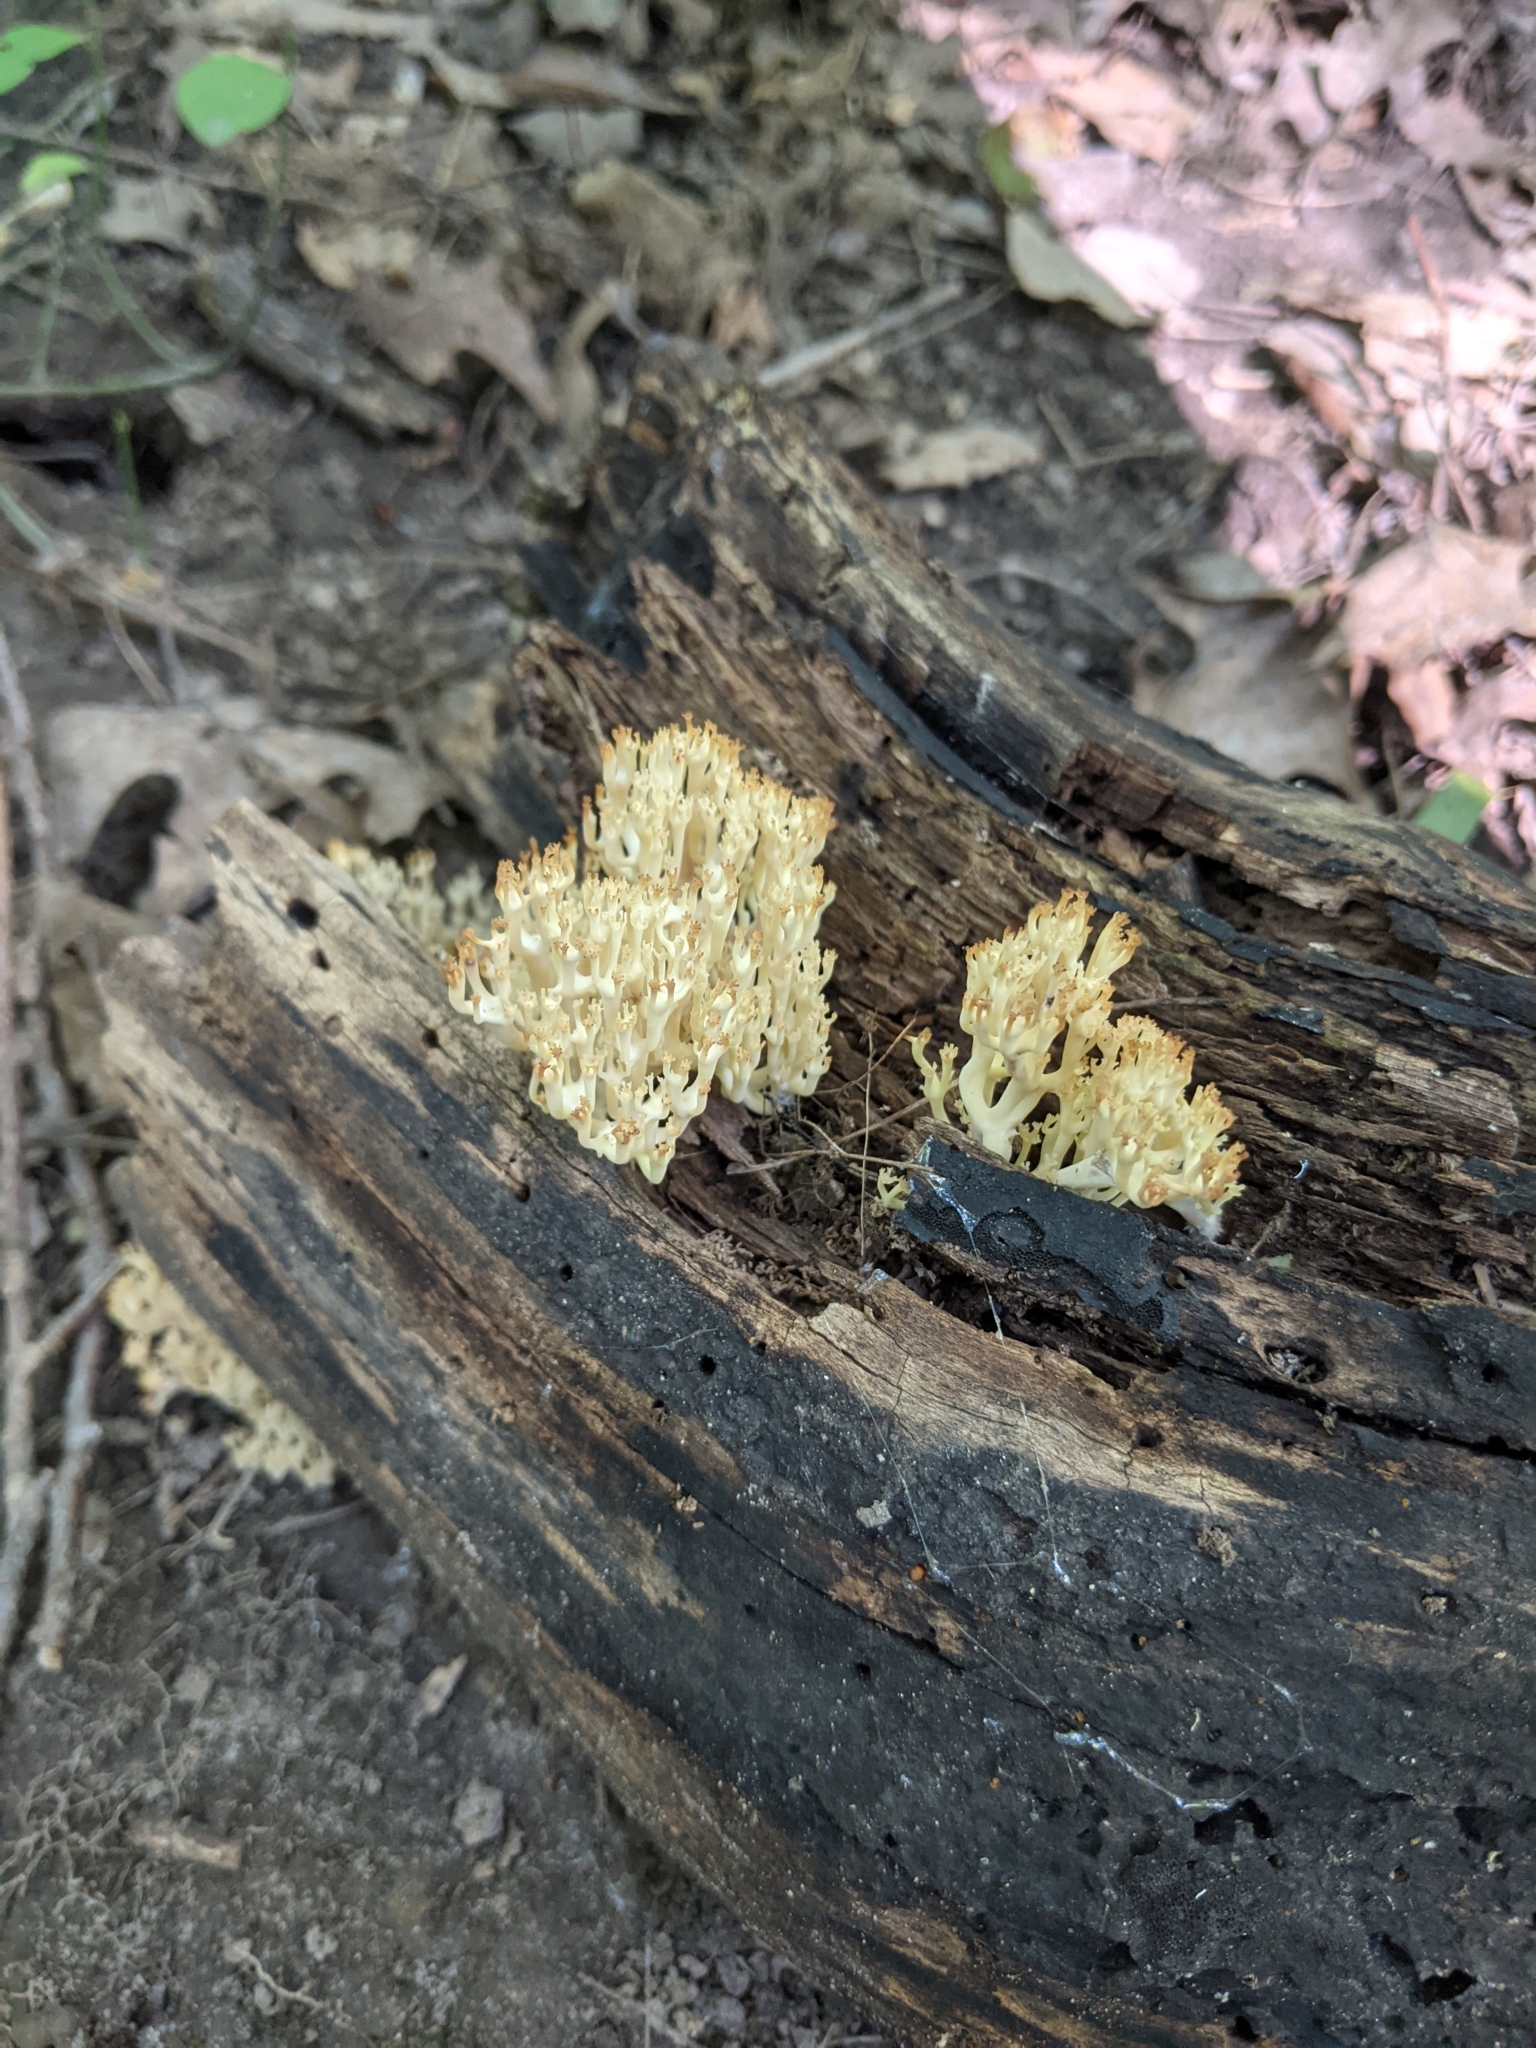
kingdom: Fungi
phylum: Basidiomycota
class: Agaricomycetes
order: Russulales
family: Auriscalpiaceae
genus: Artomyces
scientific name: Artomyces pyxidatus
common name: Crown-tipped coral fungus
